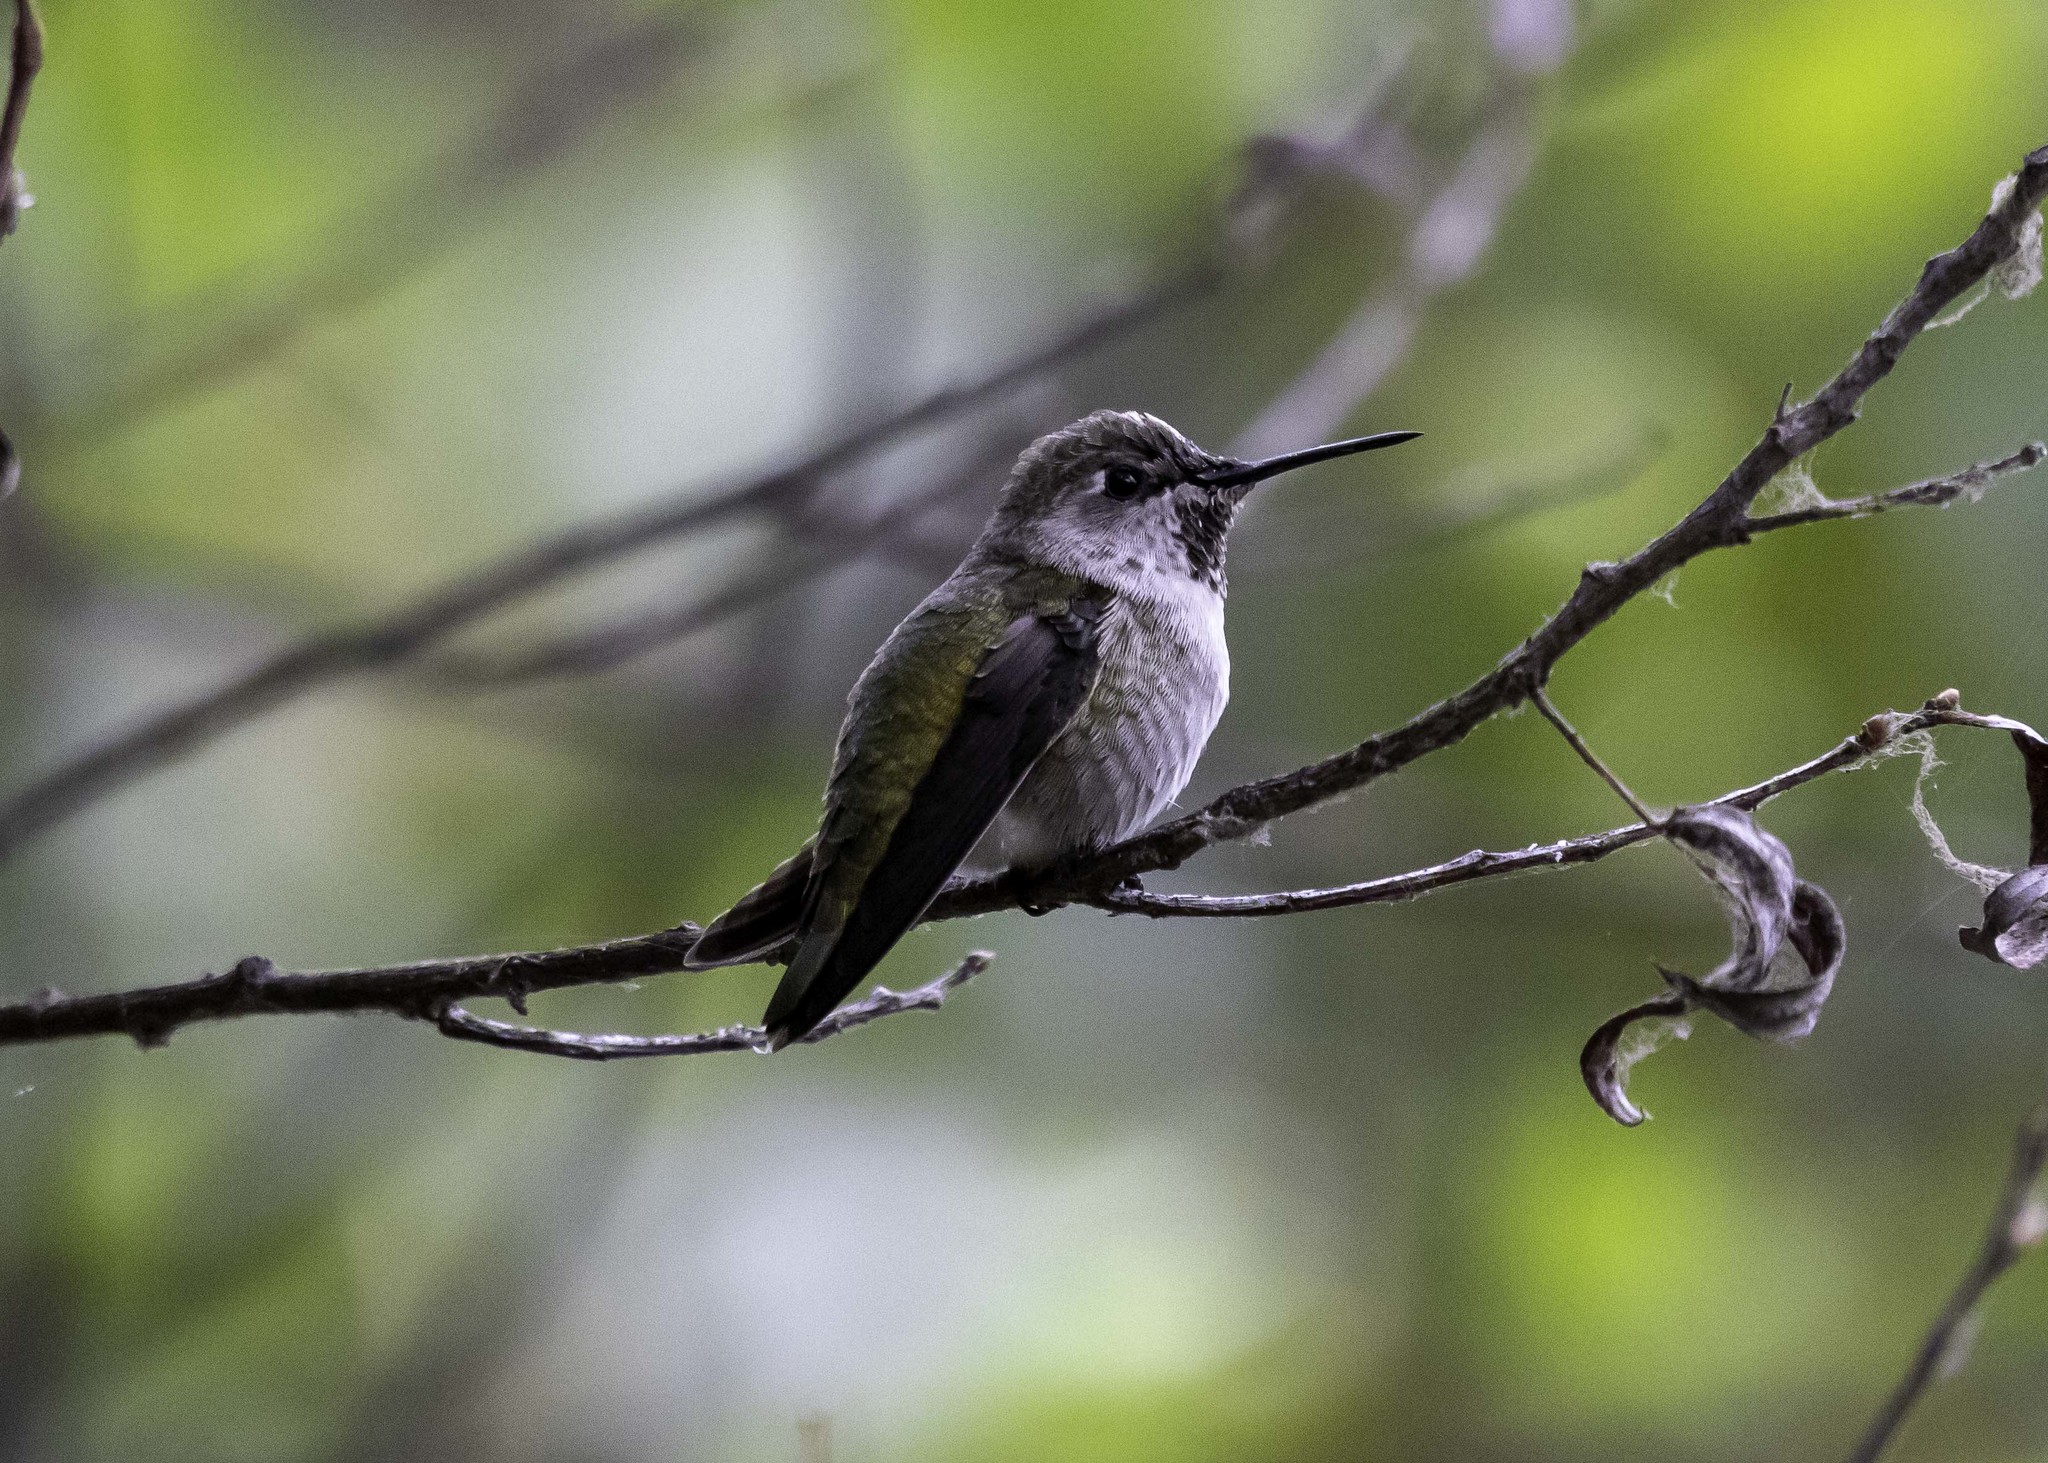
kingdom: Animalia
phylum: Chordata
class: Aves
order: Apodiformes
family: Trochilidae
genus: Calypte
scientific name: Calypte anna
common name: Anna's hummingbird
